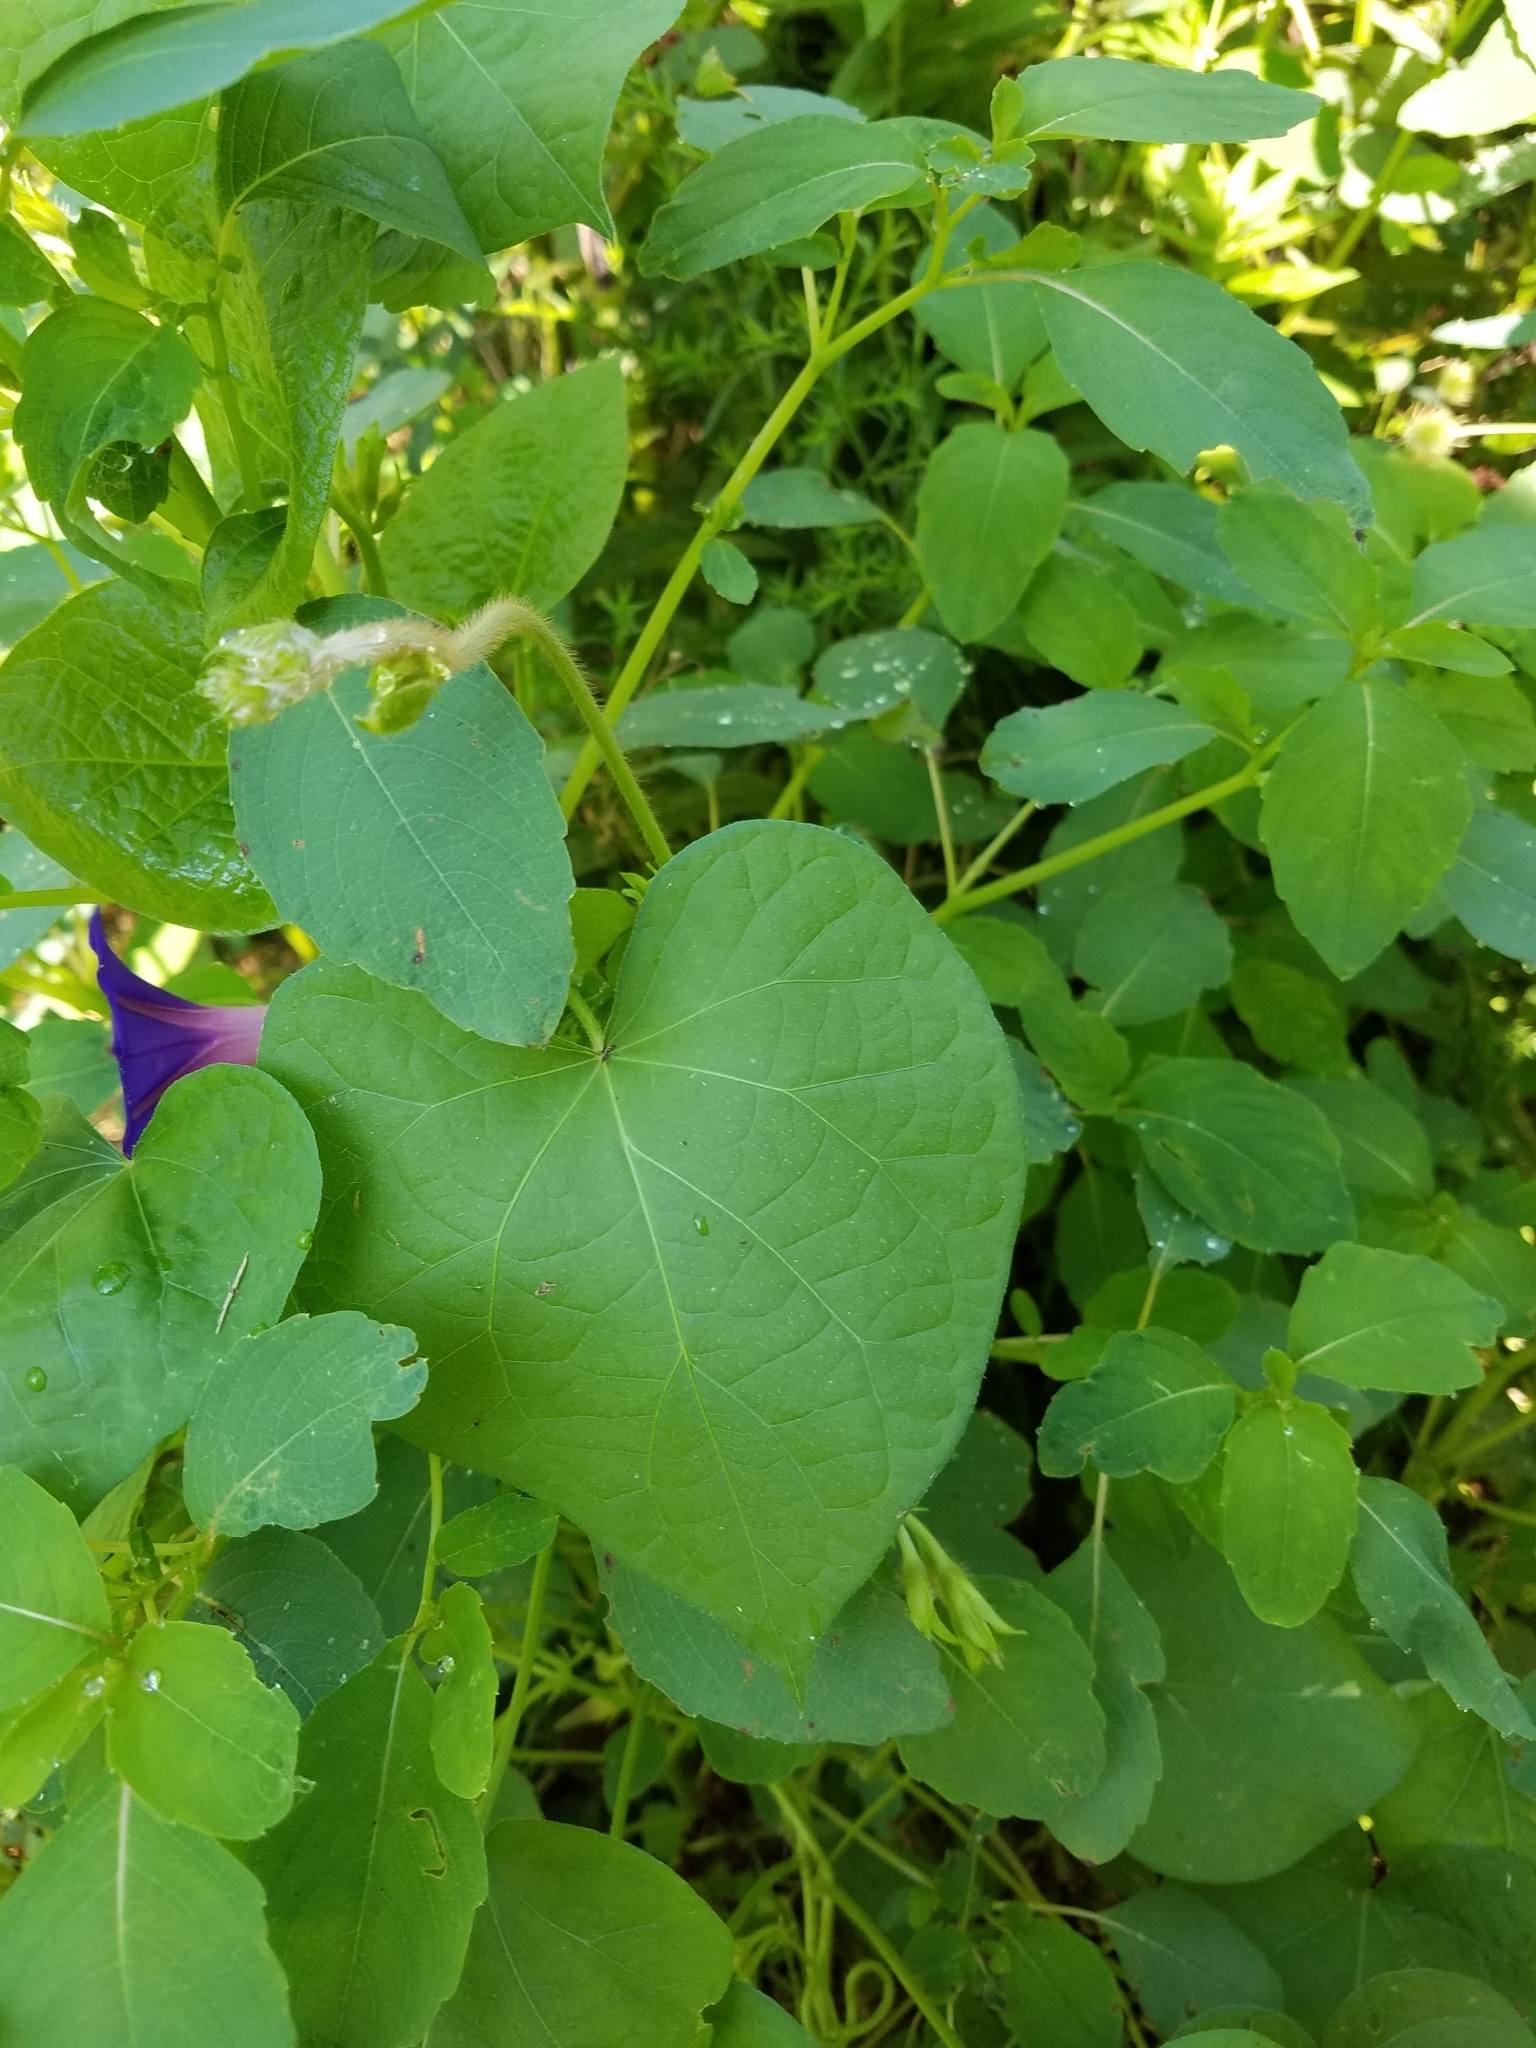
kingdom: Plantae
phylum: Tracheophyta
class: Magnoliopsida
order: Solanales
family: Convolvulaceae
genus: Ipomoea
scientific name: Ipomoea purpurea
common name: Common morning-glory
